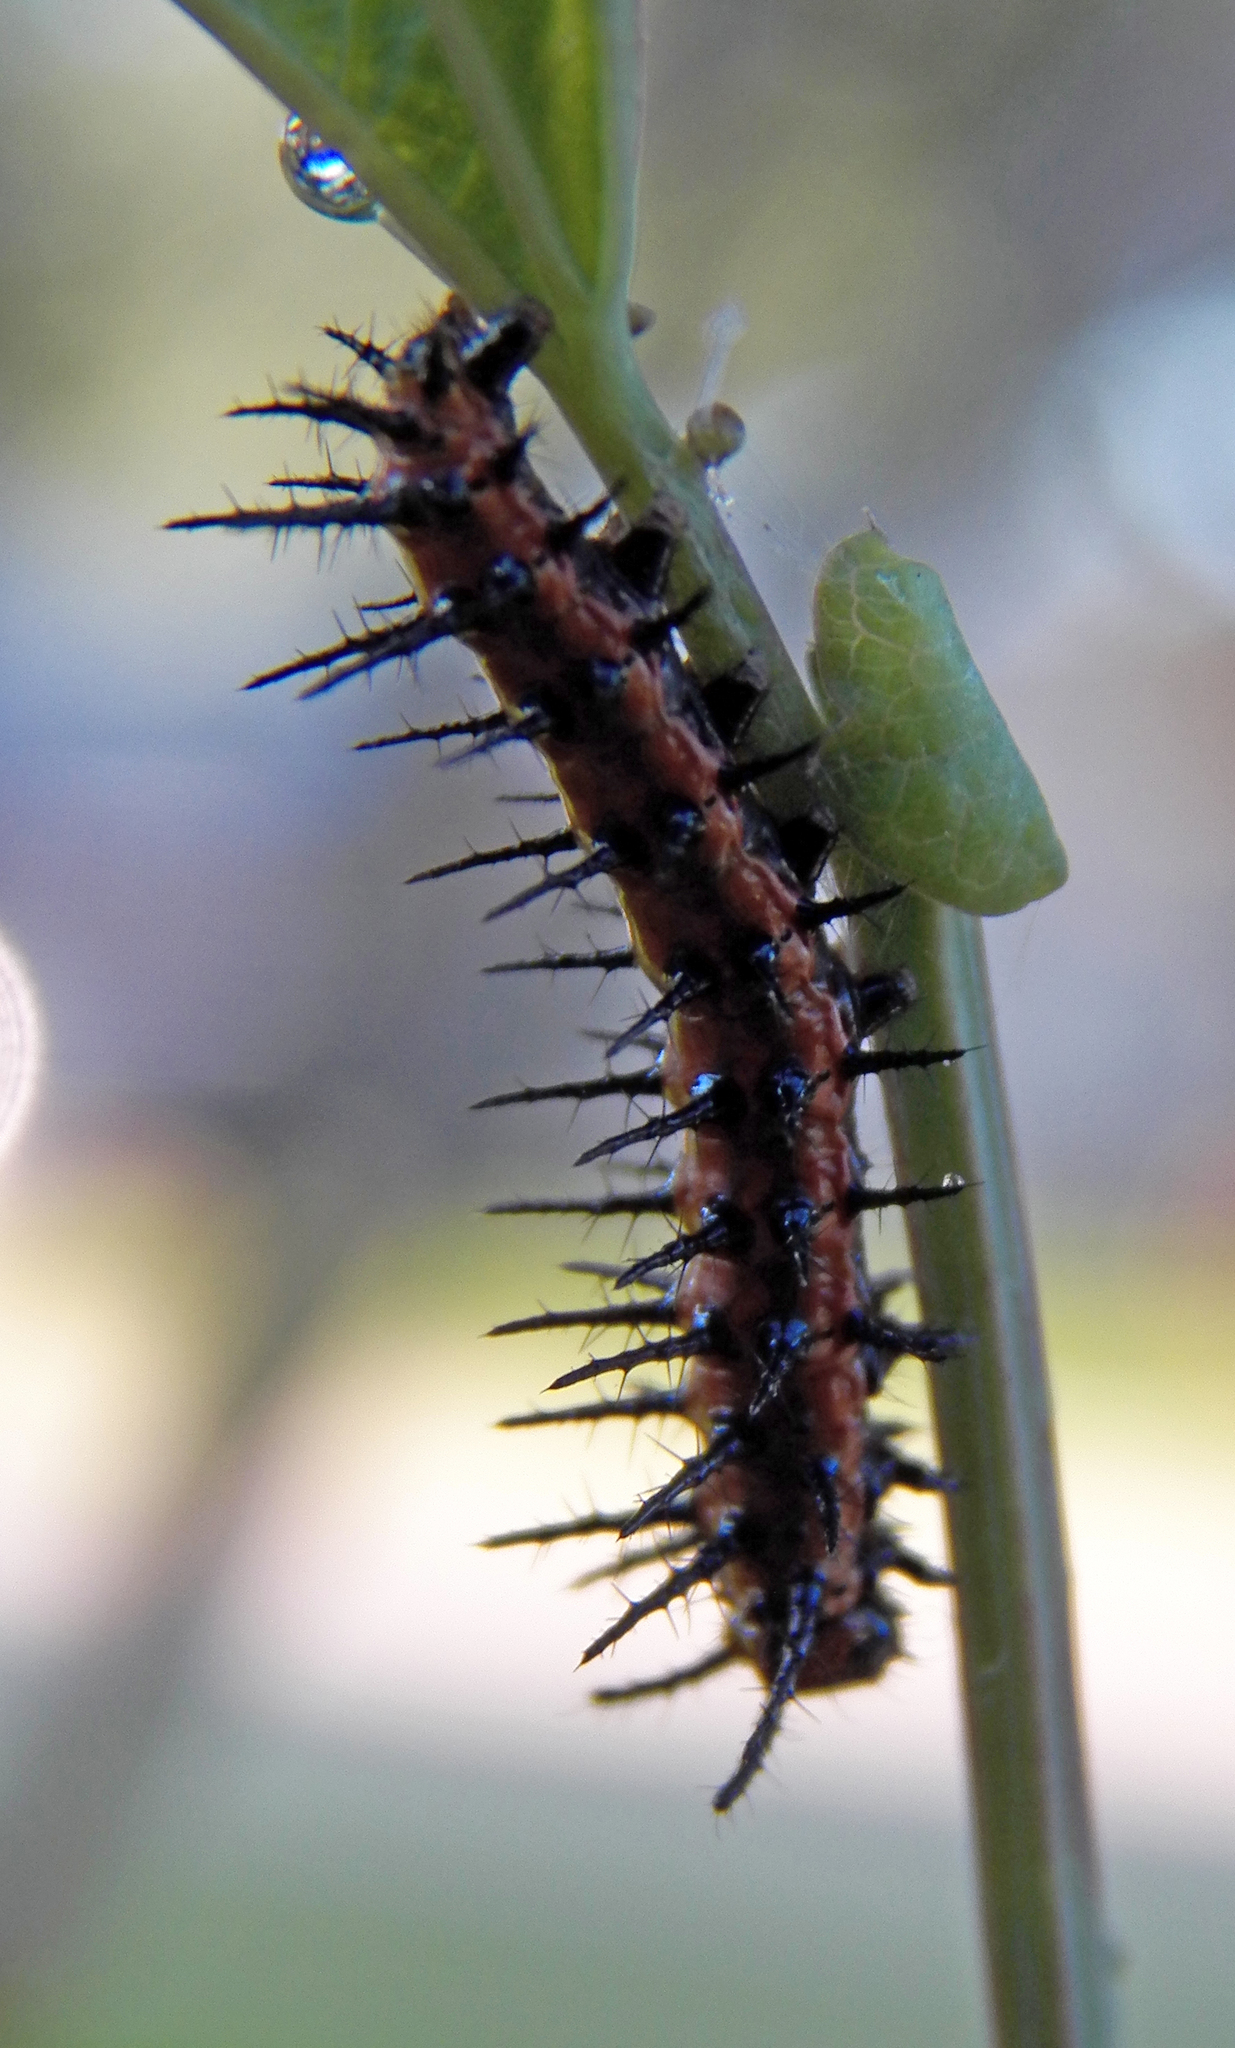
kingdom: Animalia
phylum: Arthropoda
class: Insecta
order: Lepidoptera
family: Nymphalidae
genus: Dione
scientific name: Dione vanillae
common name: Gulf fritillary
